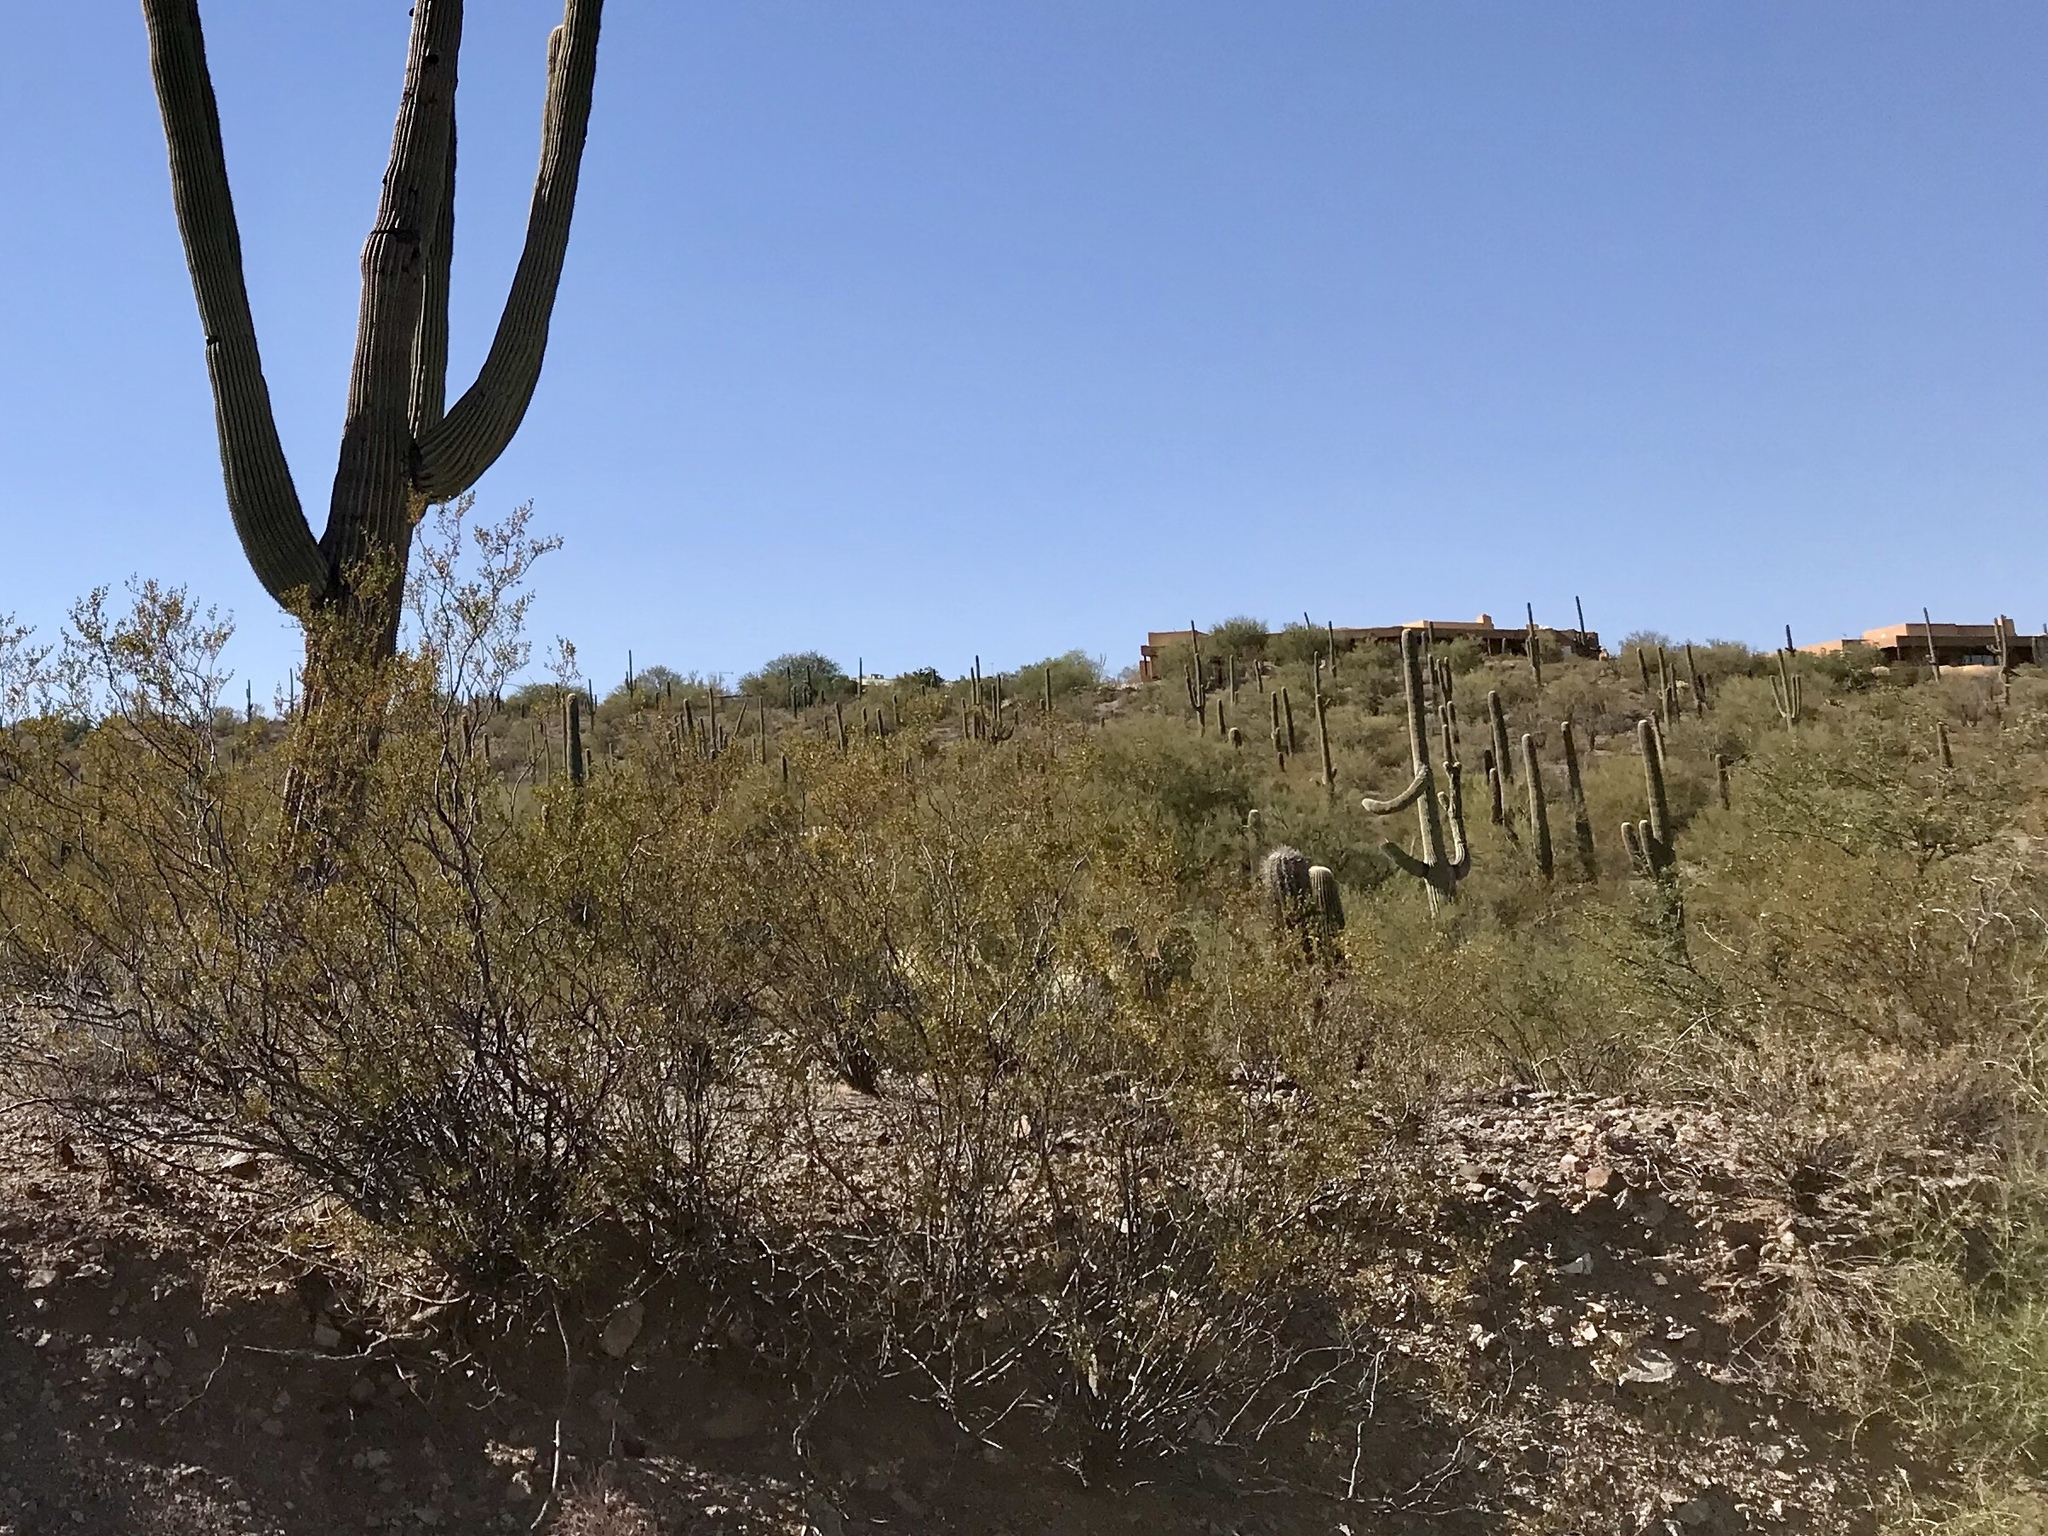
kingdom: Plantae
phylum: Tracheophyta
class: Magnoliopsida
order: Zygophyllales
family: Zygophyllaceae
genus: Larrea
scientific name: Larrea tridentata
